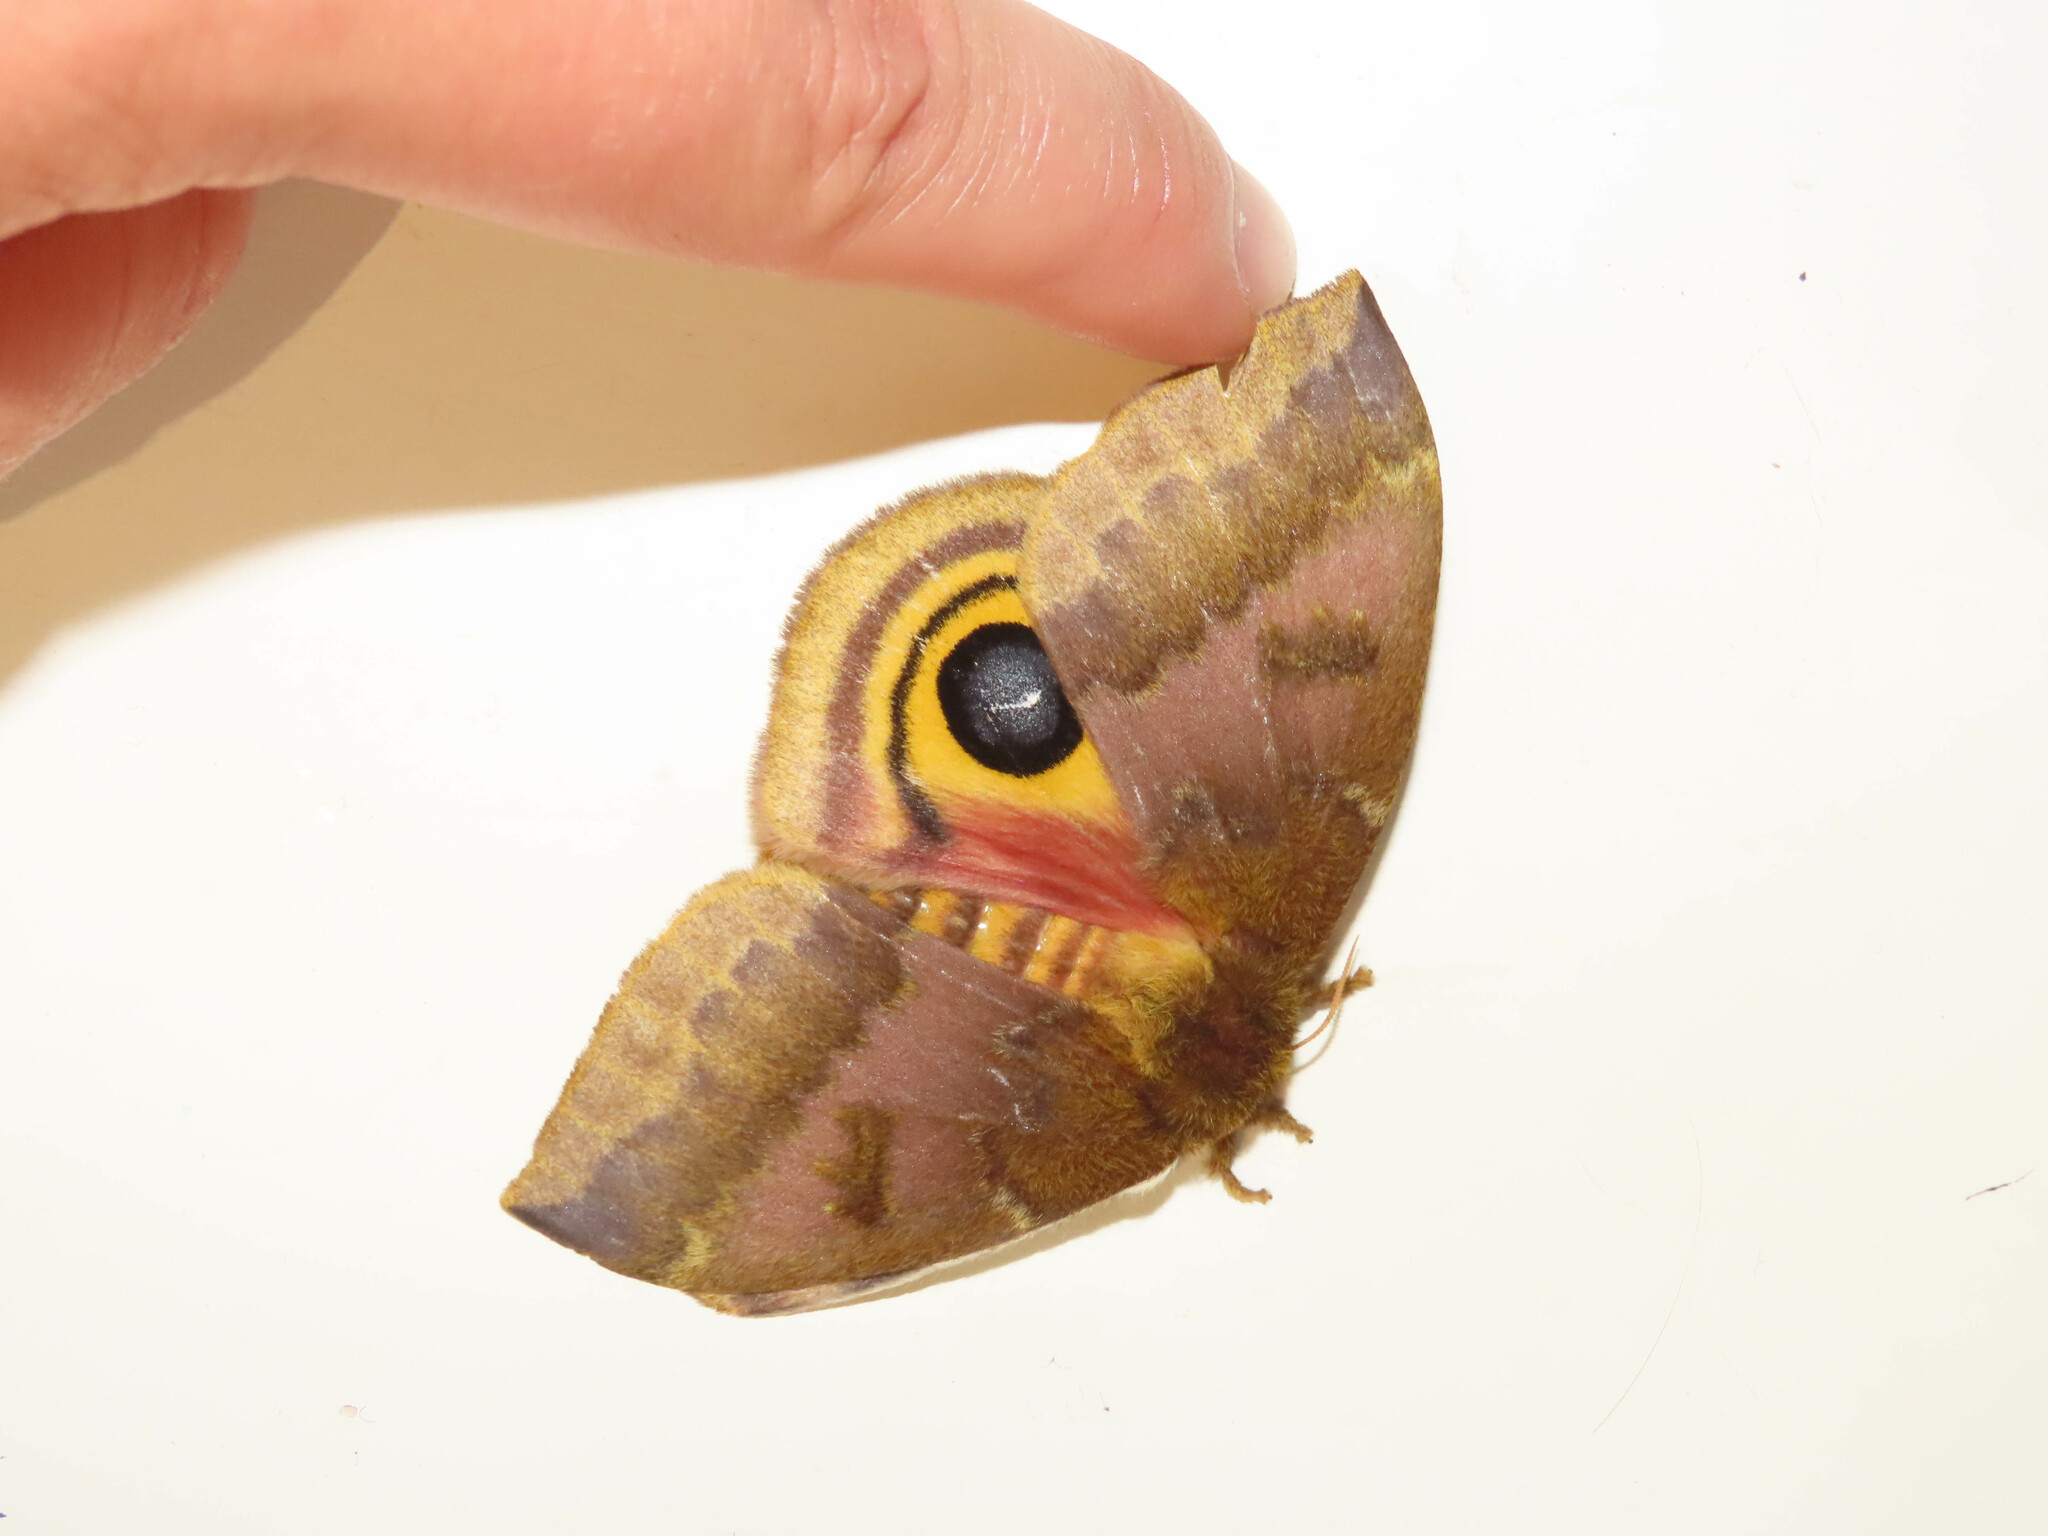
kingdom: Animalia
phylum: Arthropoda
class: Insecta
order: Lepidoptera
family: Saturniidae
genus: Automeris
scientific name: Automeris io
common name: Io moth
